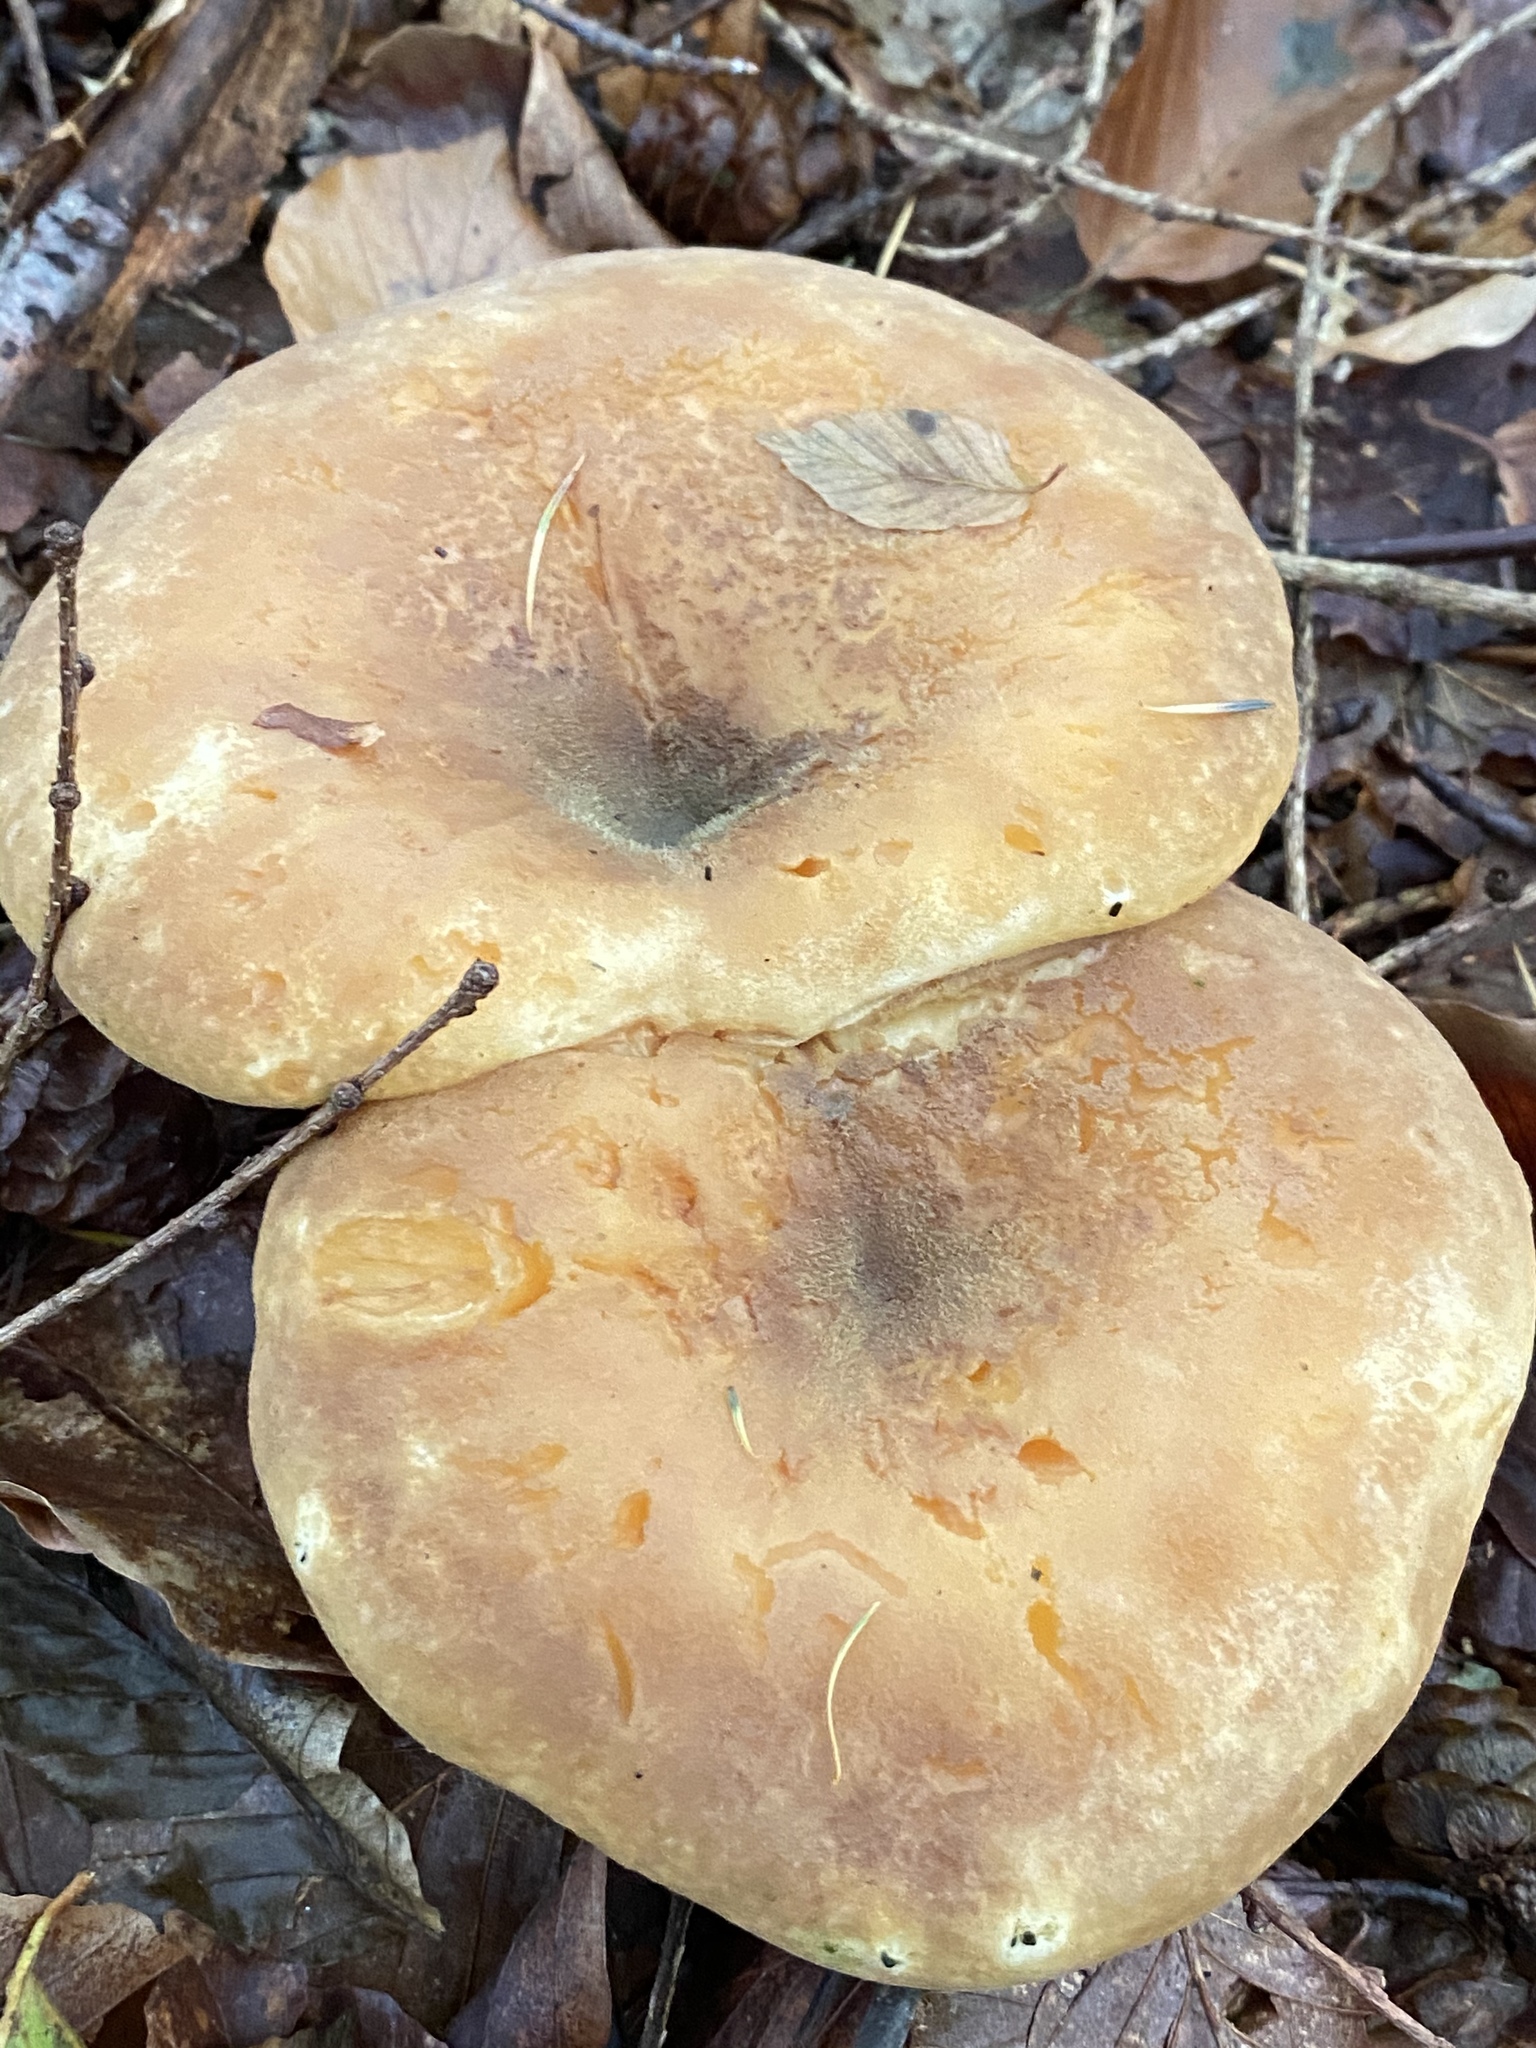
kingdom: Fungi
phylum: Basidiomycota
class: Agaricomycetes
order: Boletales
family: Tapinellaceae
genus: Tapinella
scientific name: Tapinella atrotomentosa
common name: Velvet rollrim
